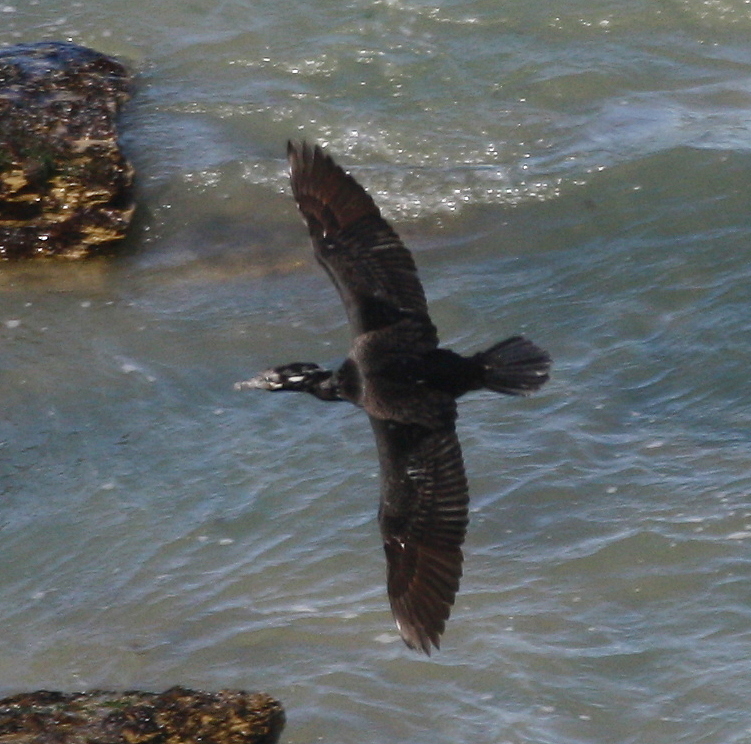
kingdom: Animalia
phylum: Chordata
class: Aves
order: Suliformes
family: Phalacrocoracidae
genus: Phalacrocorax
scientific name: Phalacrocorax brasilianus
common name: Neotropic cormorant
